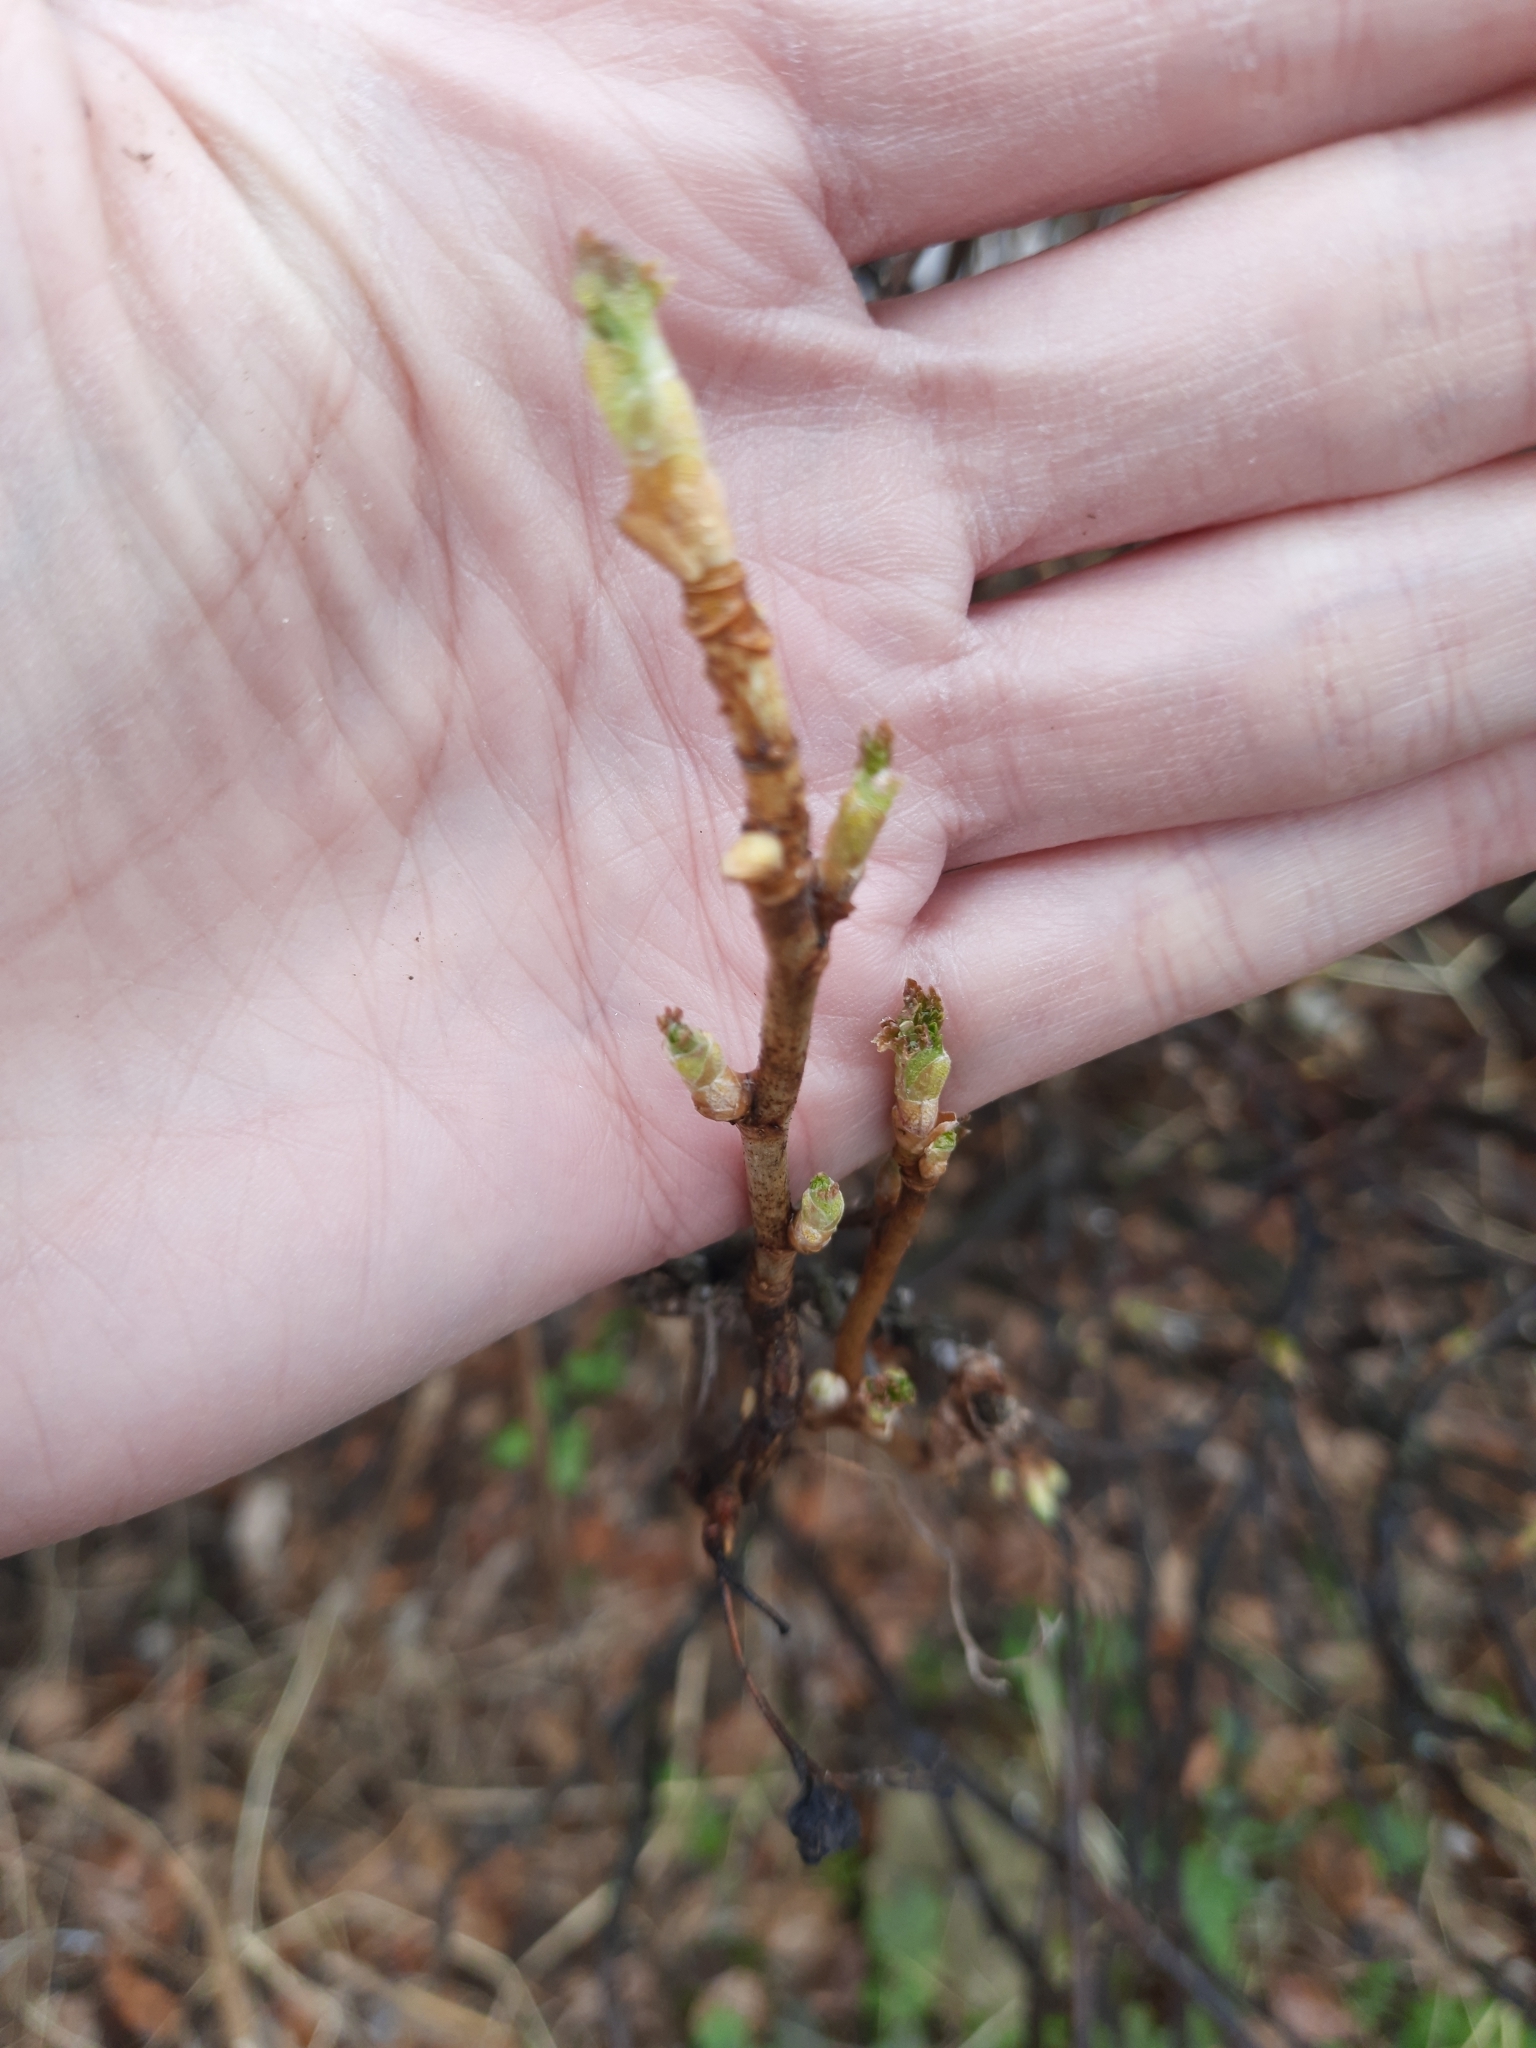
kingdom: Plantae
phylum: Tracheophyta
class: Magnoliopsida
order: Saxifragales
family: Grossulariaceae
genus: Ribes
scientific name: Ribes nigrum
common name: Black currant
